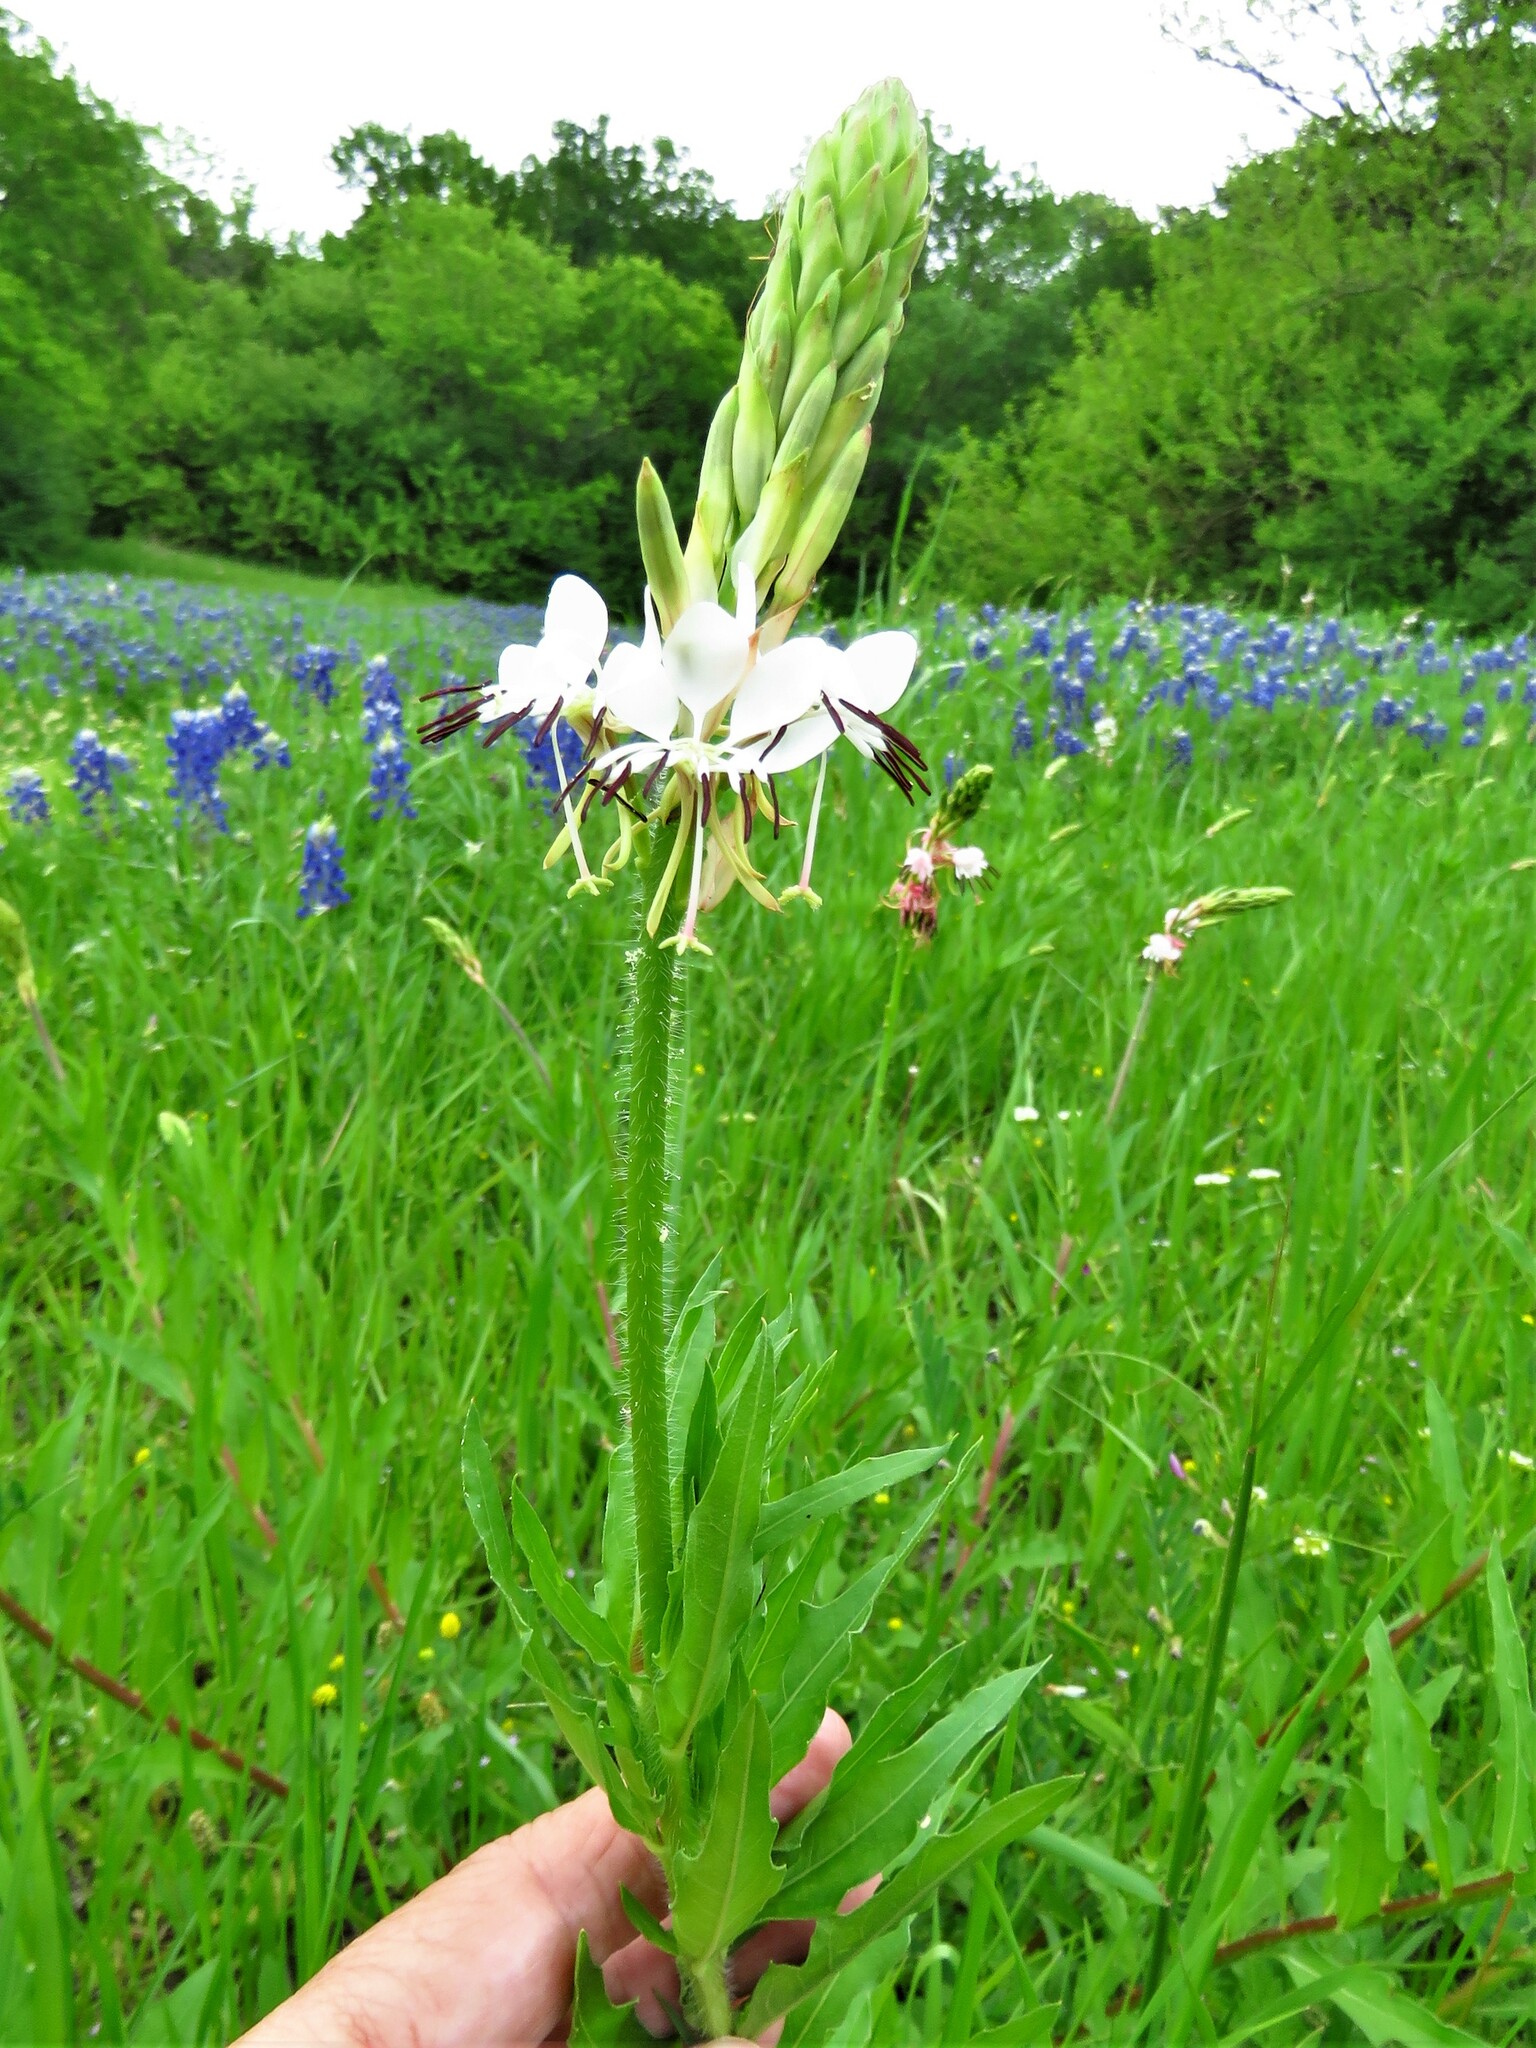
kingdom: Plantae
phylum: Tracheophyta
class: Magnoliopsida
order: Myrtales
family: Onagraceae
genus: Oenothera
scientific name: Oenothera suffulta
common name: Kisses
